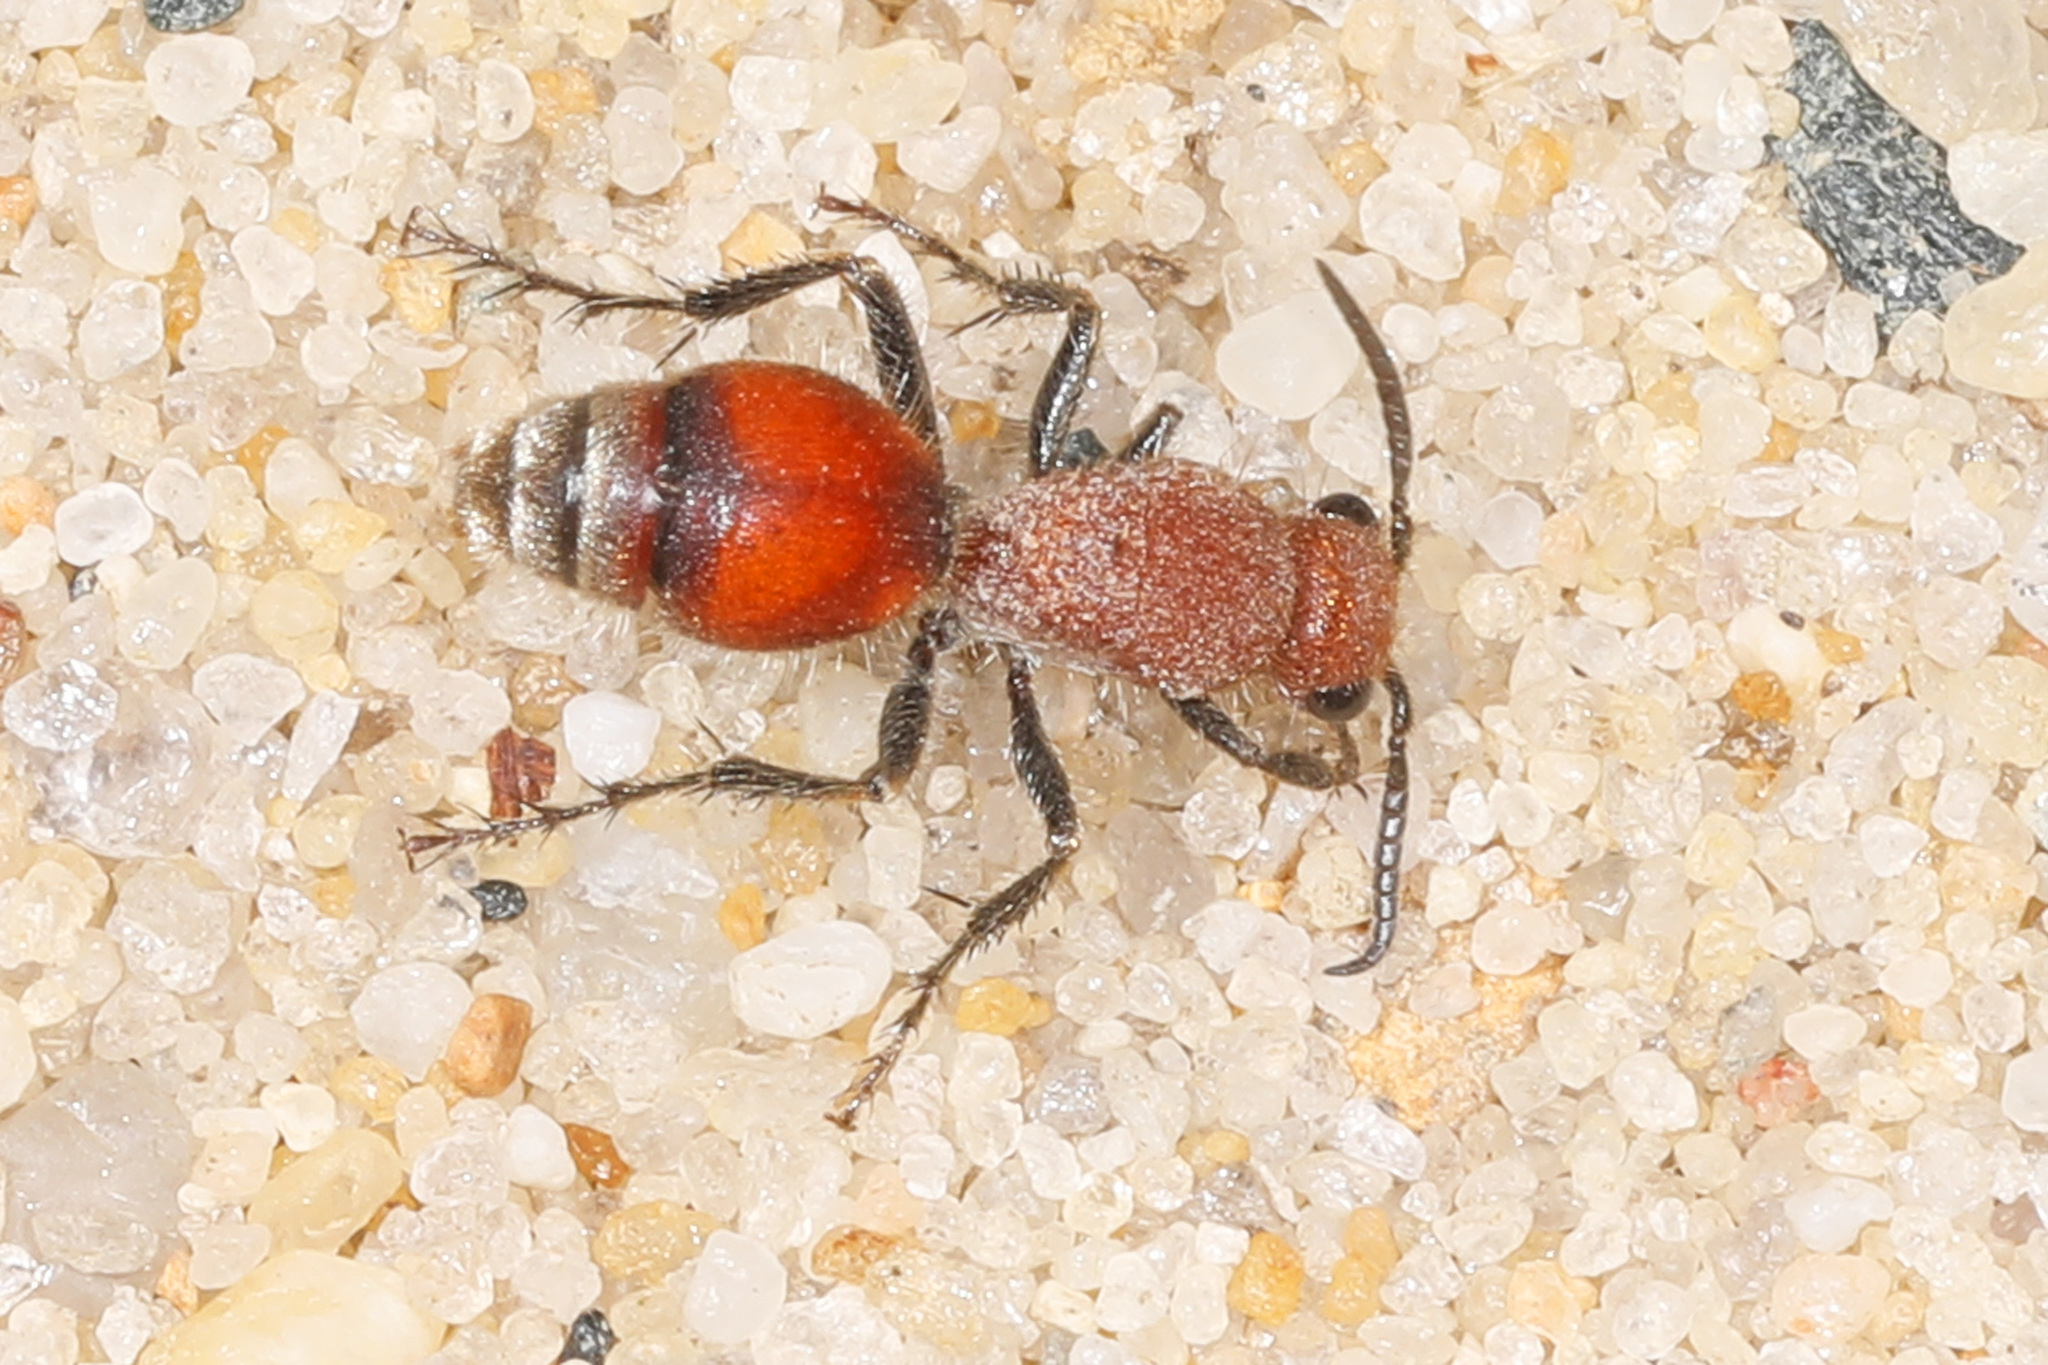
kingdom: Animalia
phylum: Arthropoda
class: Insecta
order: Hymenoptera
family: Mutillidae
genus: Dasymutilla
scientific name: Dasymutilla
